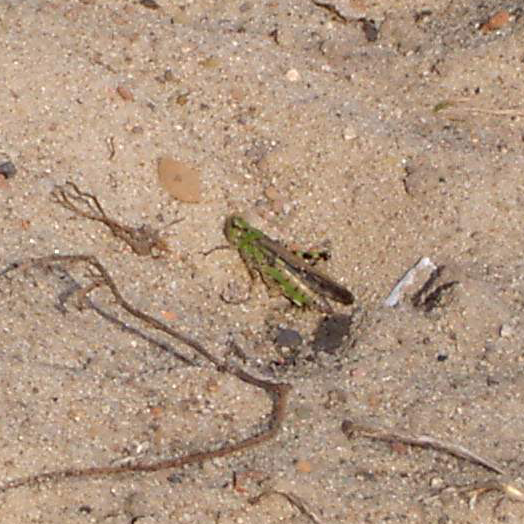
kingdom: Animalia
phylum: Arthropoda
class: Insecta
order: Orthoptera
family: Acrididae
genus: Aiolopus
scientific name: Aiolopus thalassinus
